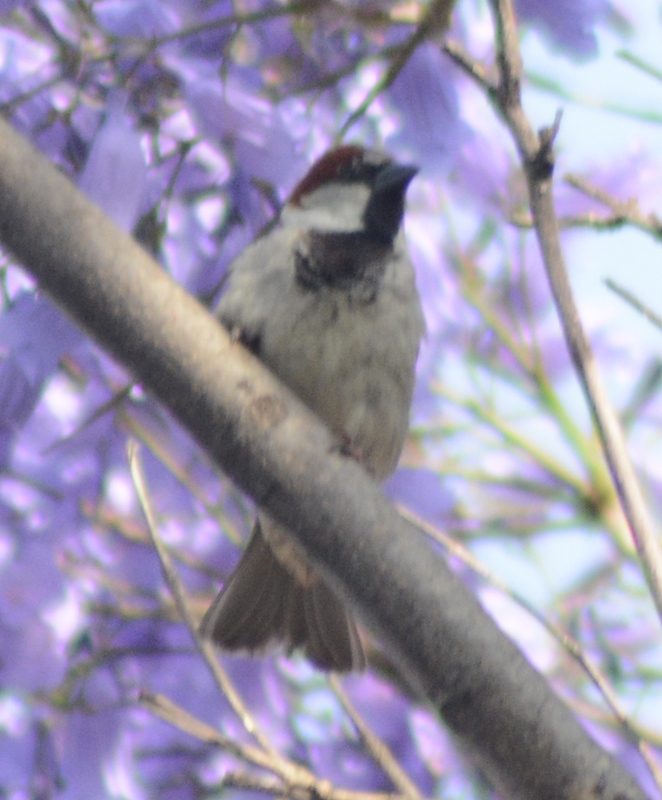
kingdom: Animalia
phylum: Chordata
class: Aves
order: Passeriformes
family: Passeridae
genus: Passer
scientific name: Passer domesticus
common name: House sparrow
